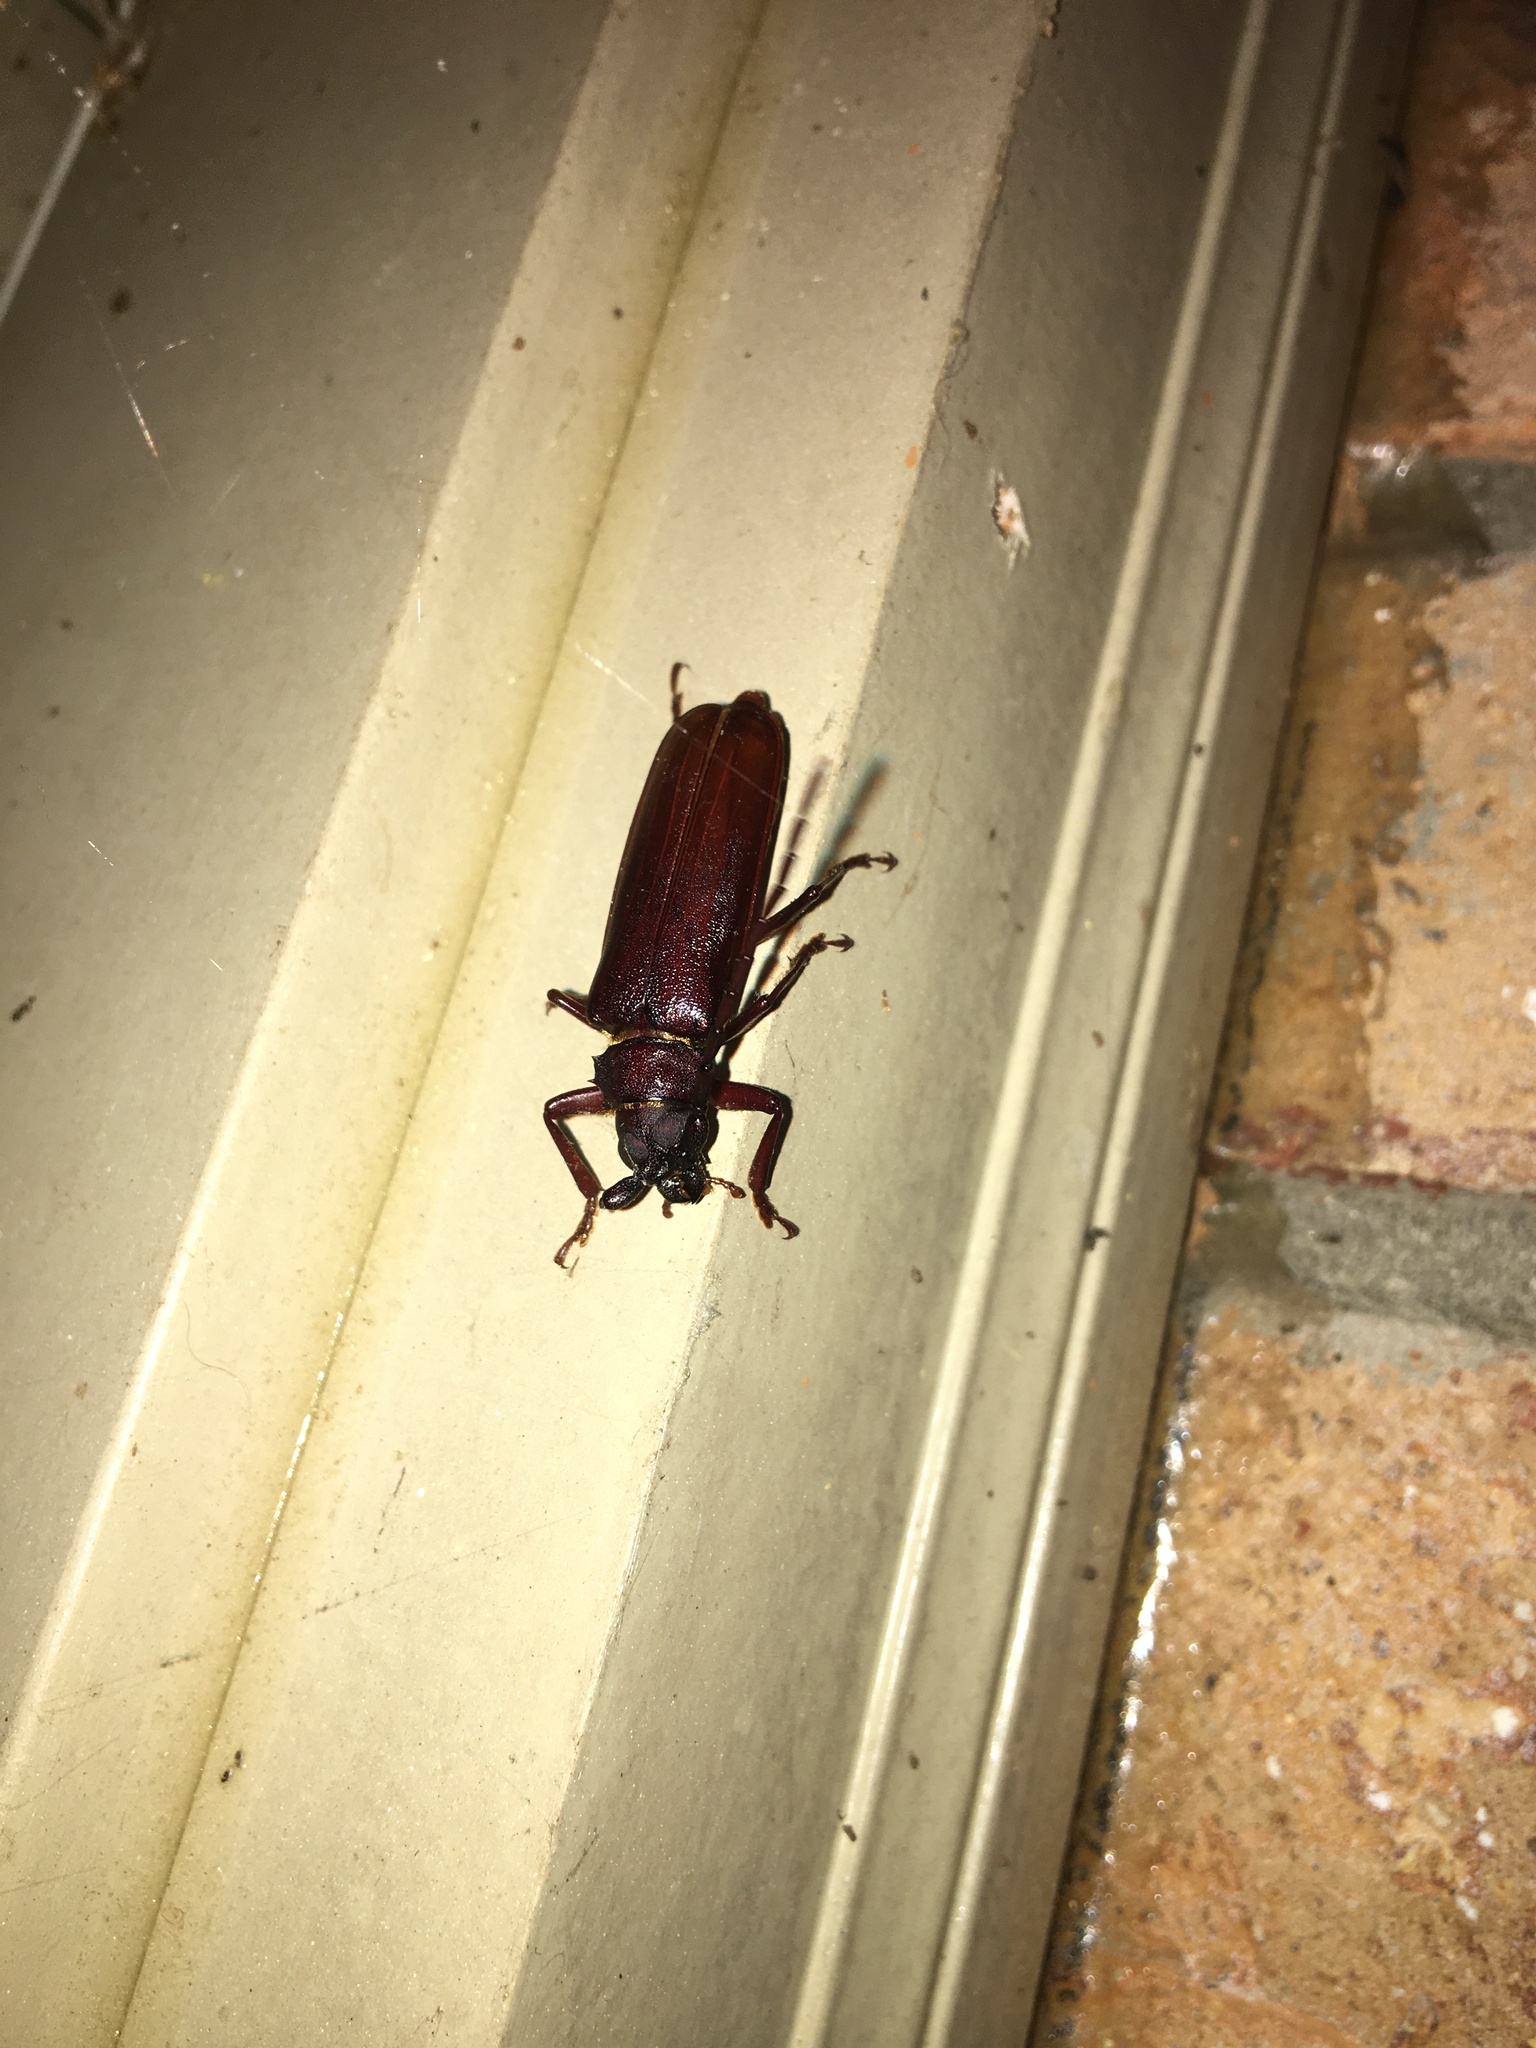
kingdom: Animalia
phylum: Arthropoda
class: Insecta
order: Coleoptera
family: Cerambycidae
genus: Orthosoma
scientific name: Orthosoma brunneum
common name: Brown prionid beetle
